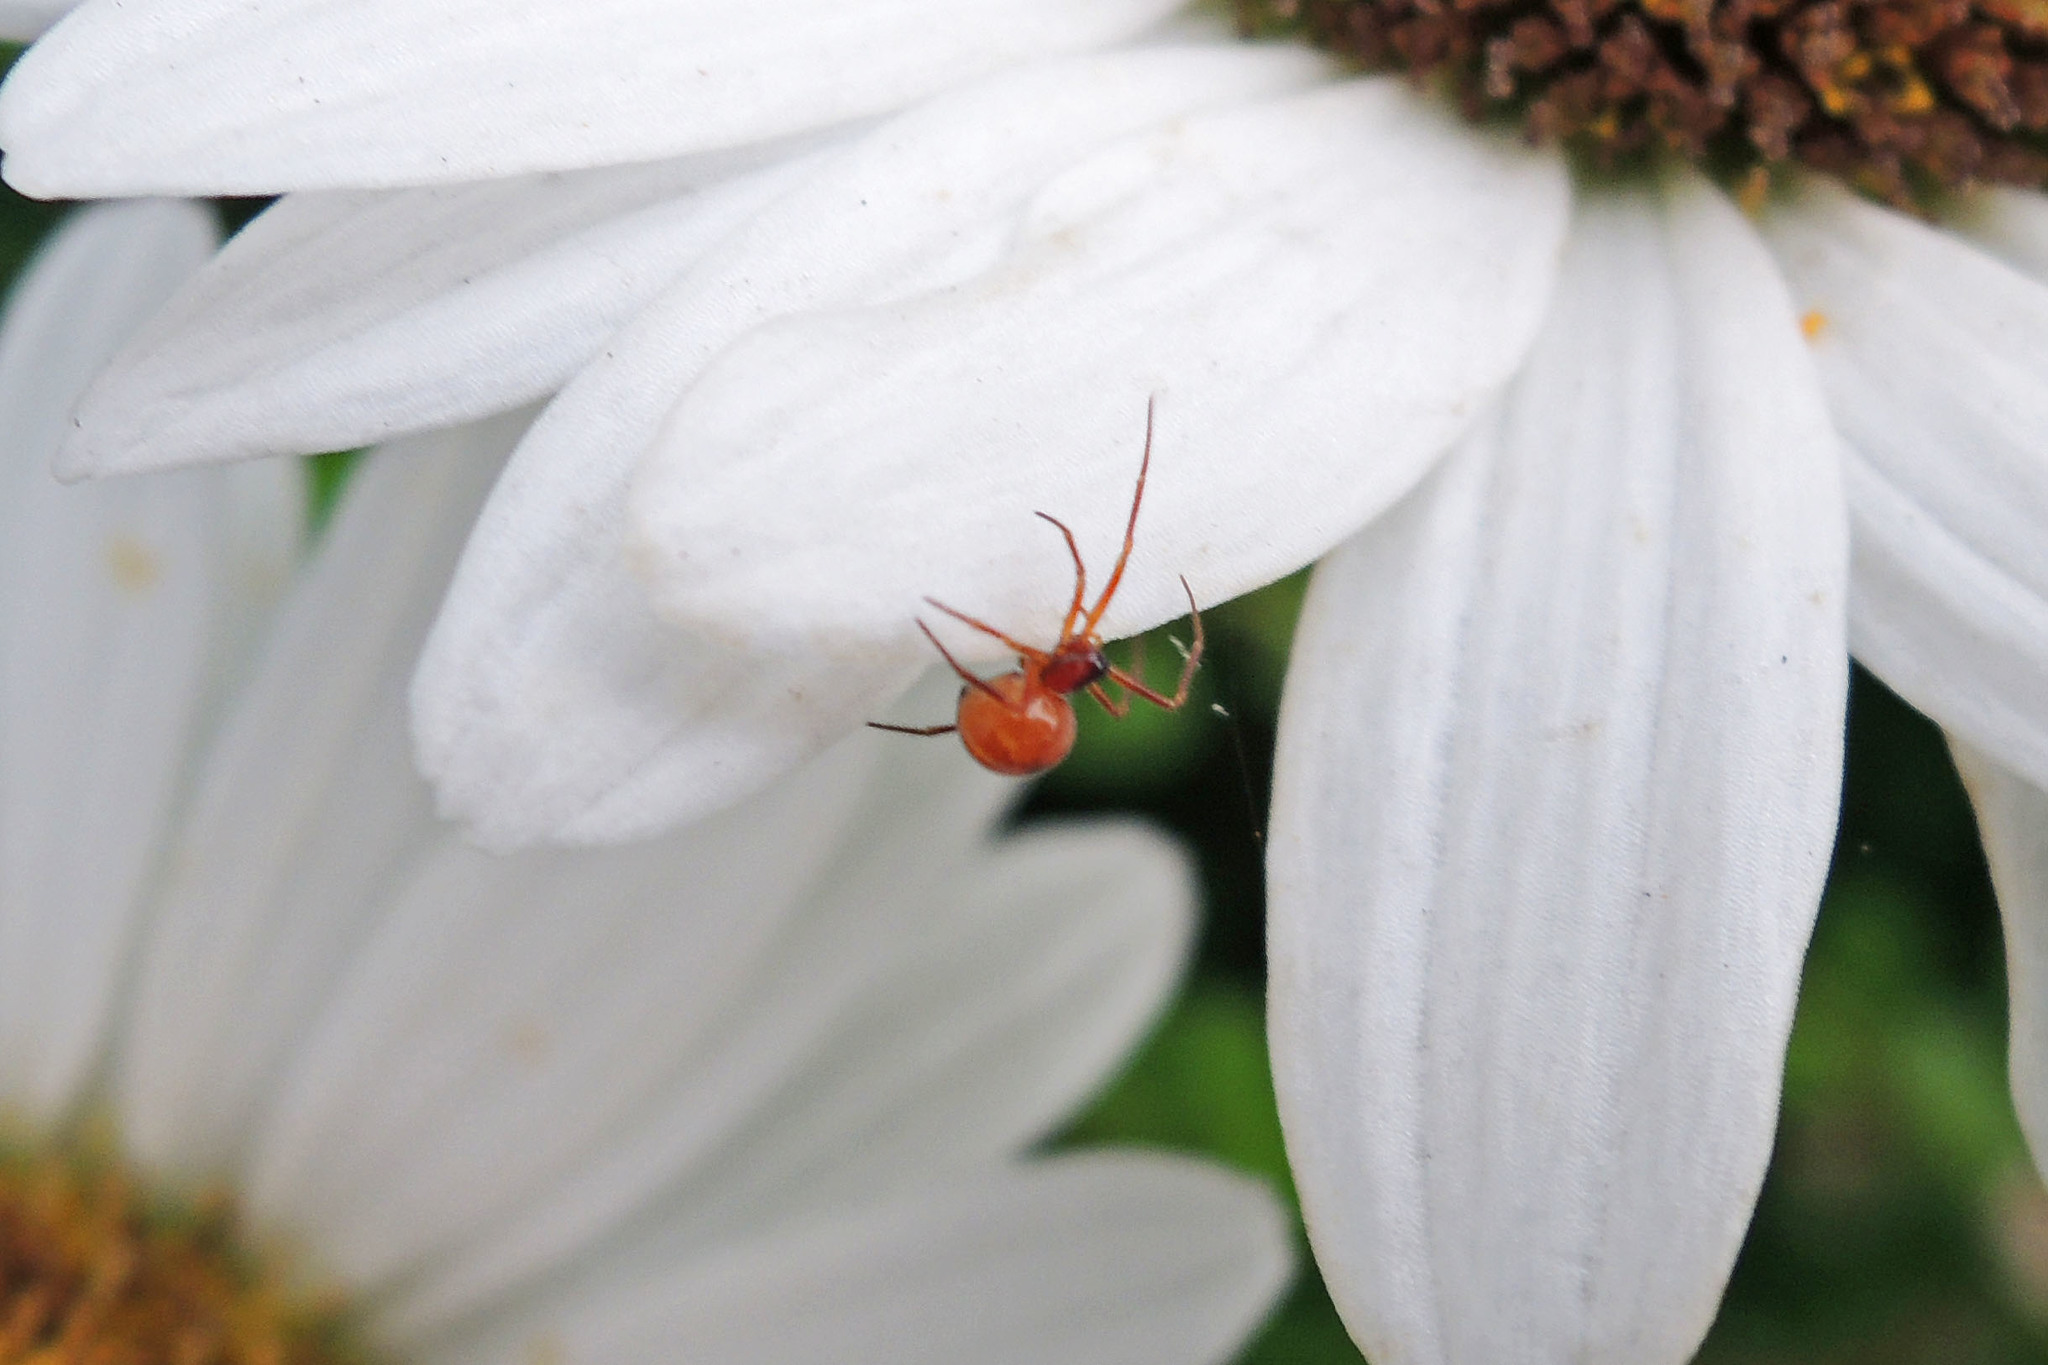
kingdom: Animalia
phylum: Arthropoda
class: Arachnida
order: Araneae
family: Theridiidae
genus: Thymoites
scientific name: Thymoites unimaculatus
